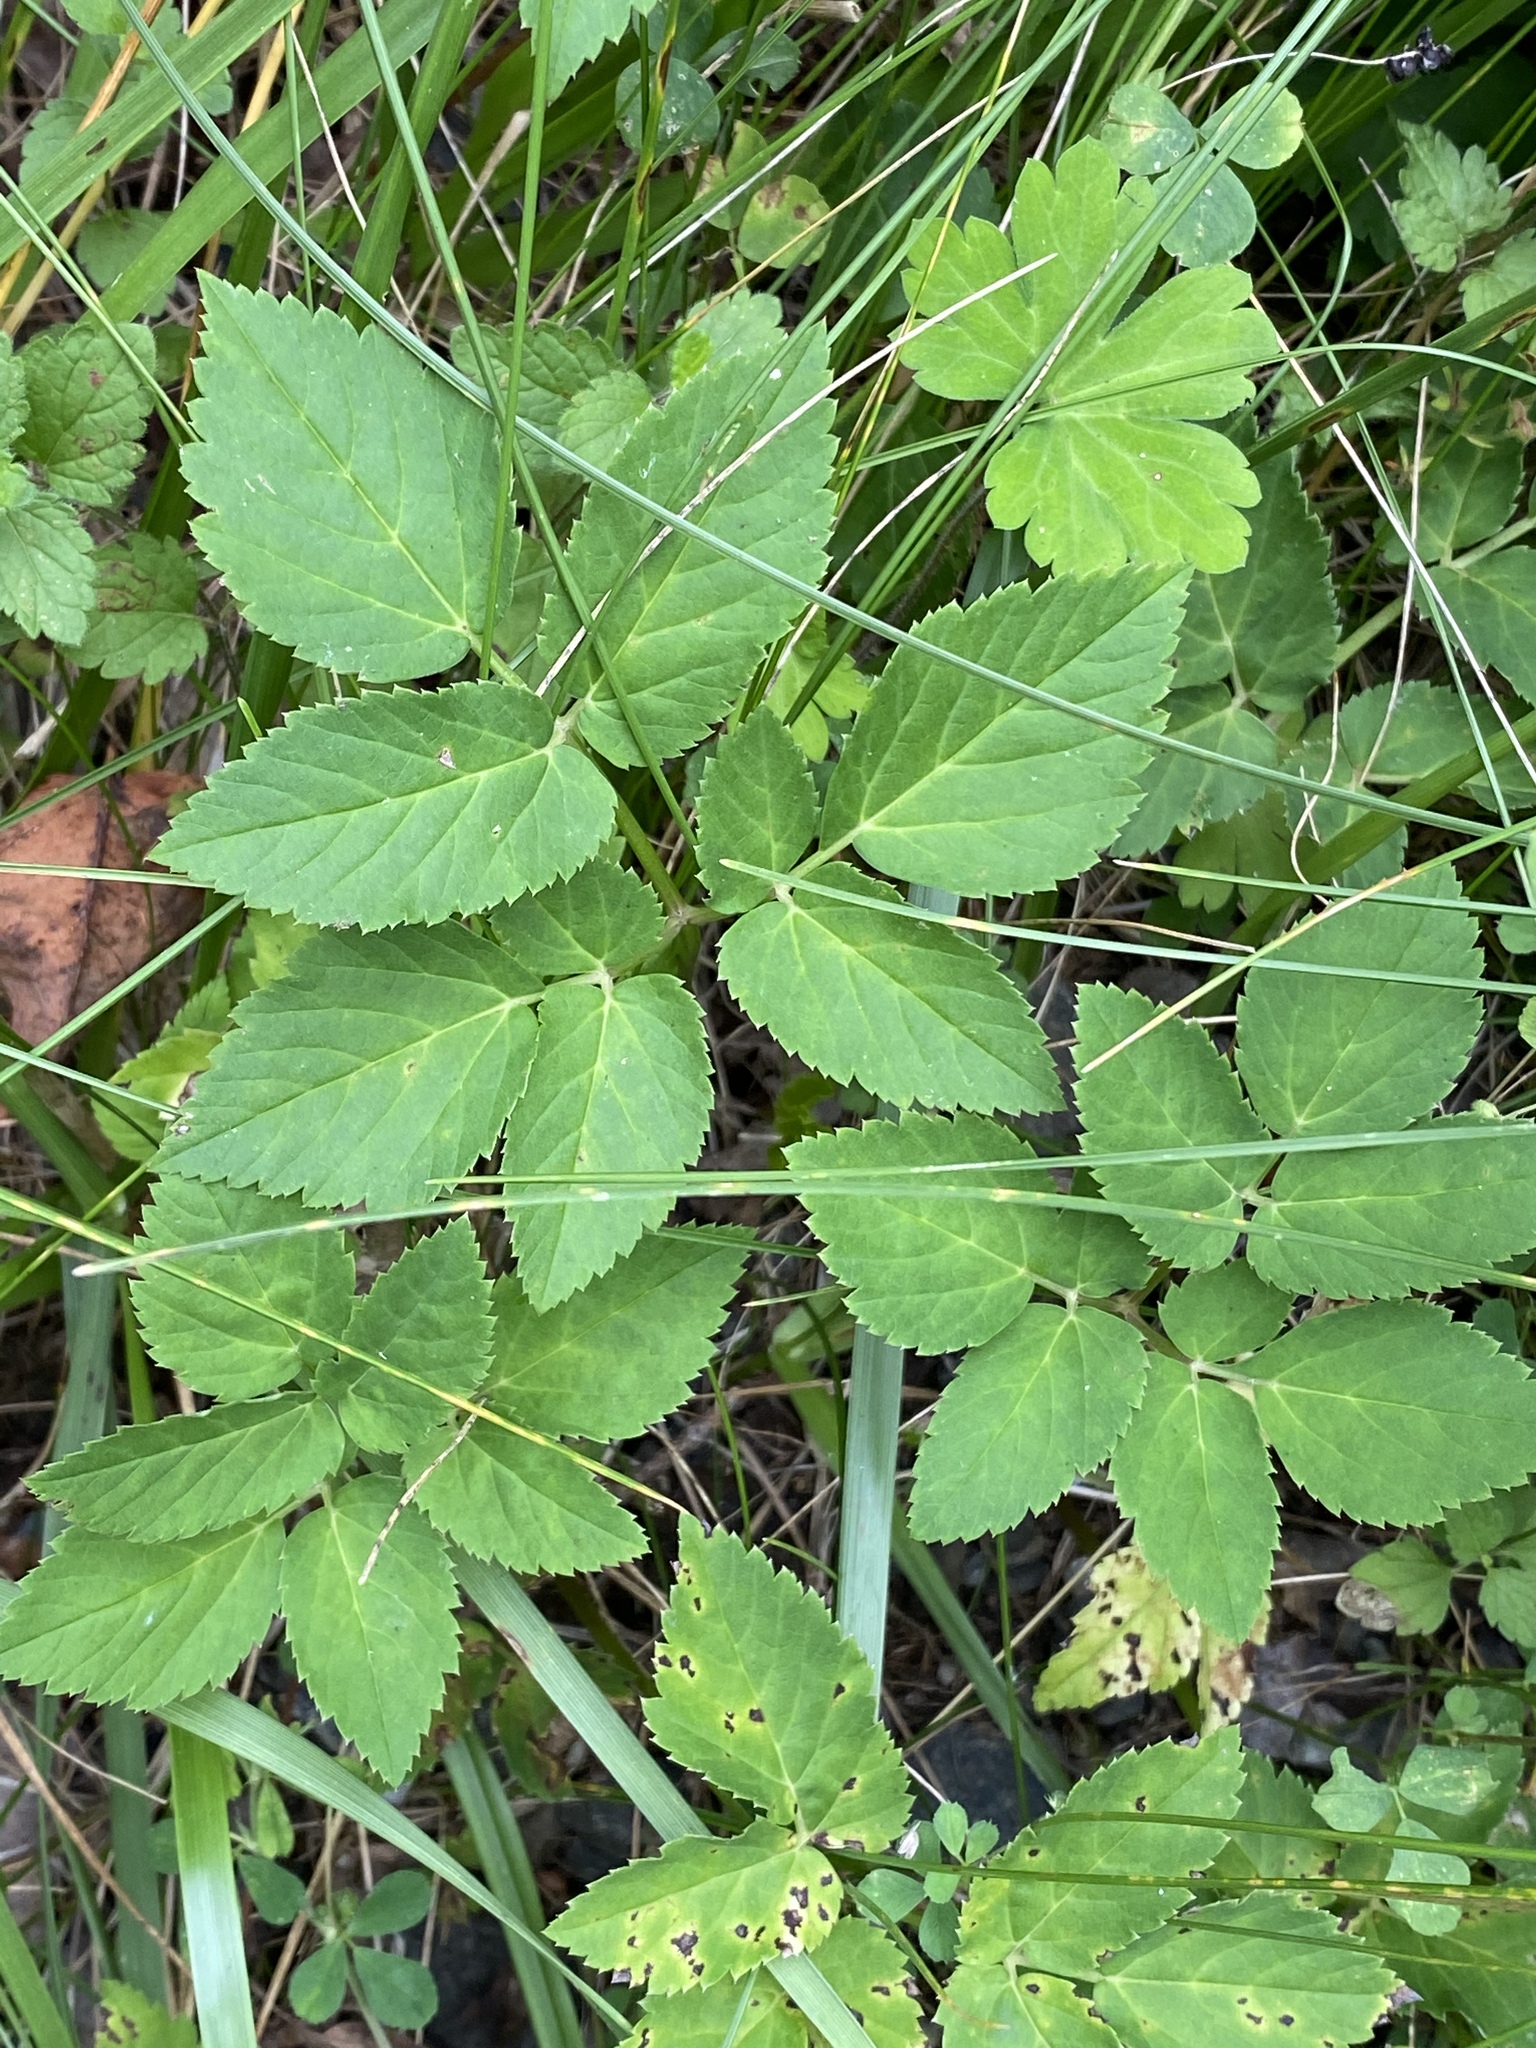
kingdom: Plantae
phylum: Tracheophyta
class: Magnoliopsida
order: Apiales
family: Apiaceae
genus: Aegopodium
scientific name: Aegopodium podagraria
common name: Ground-elder
